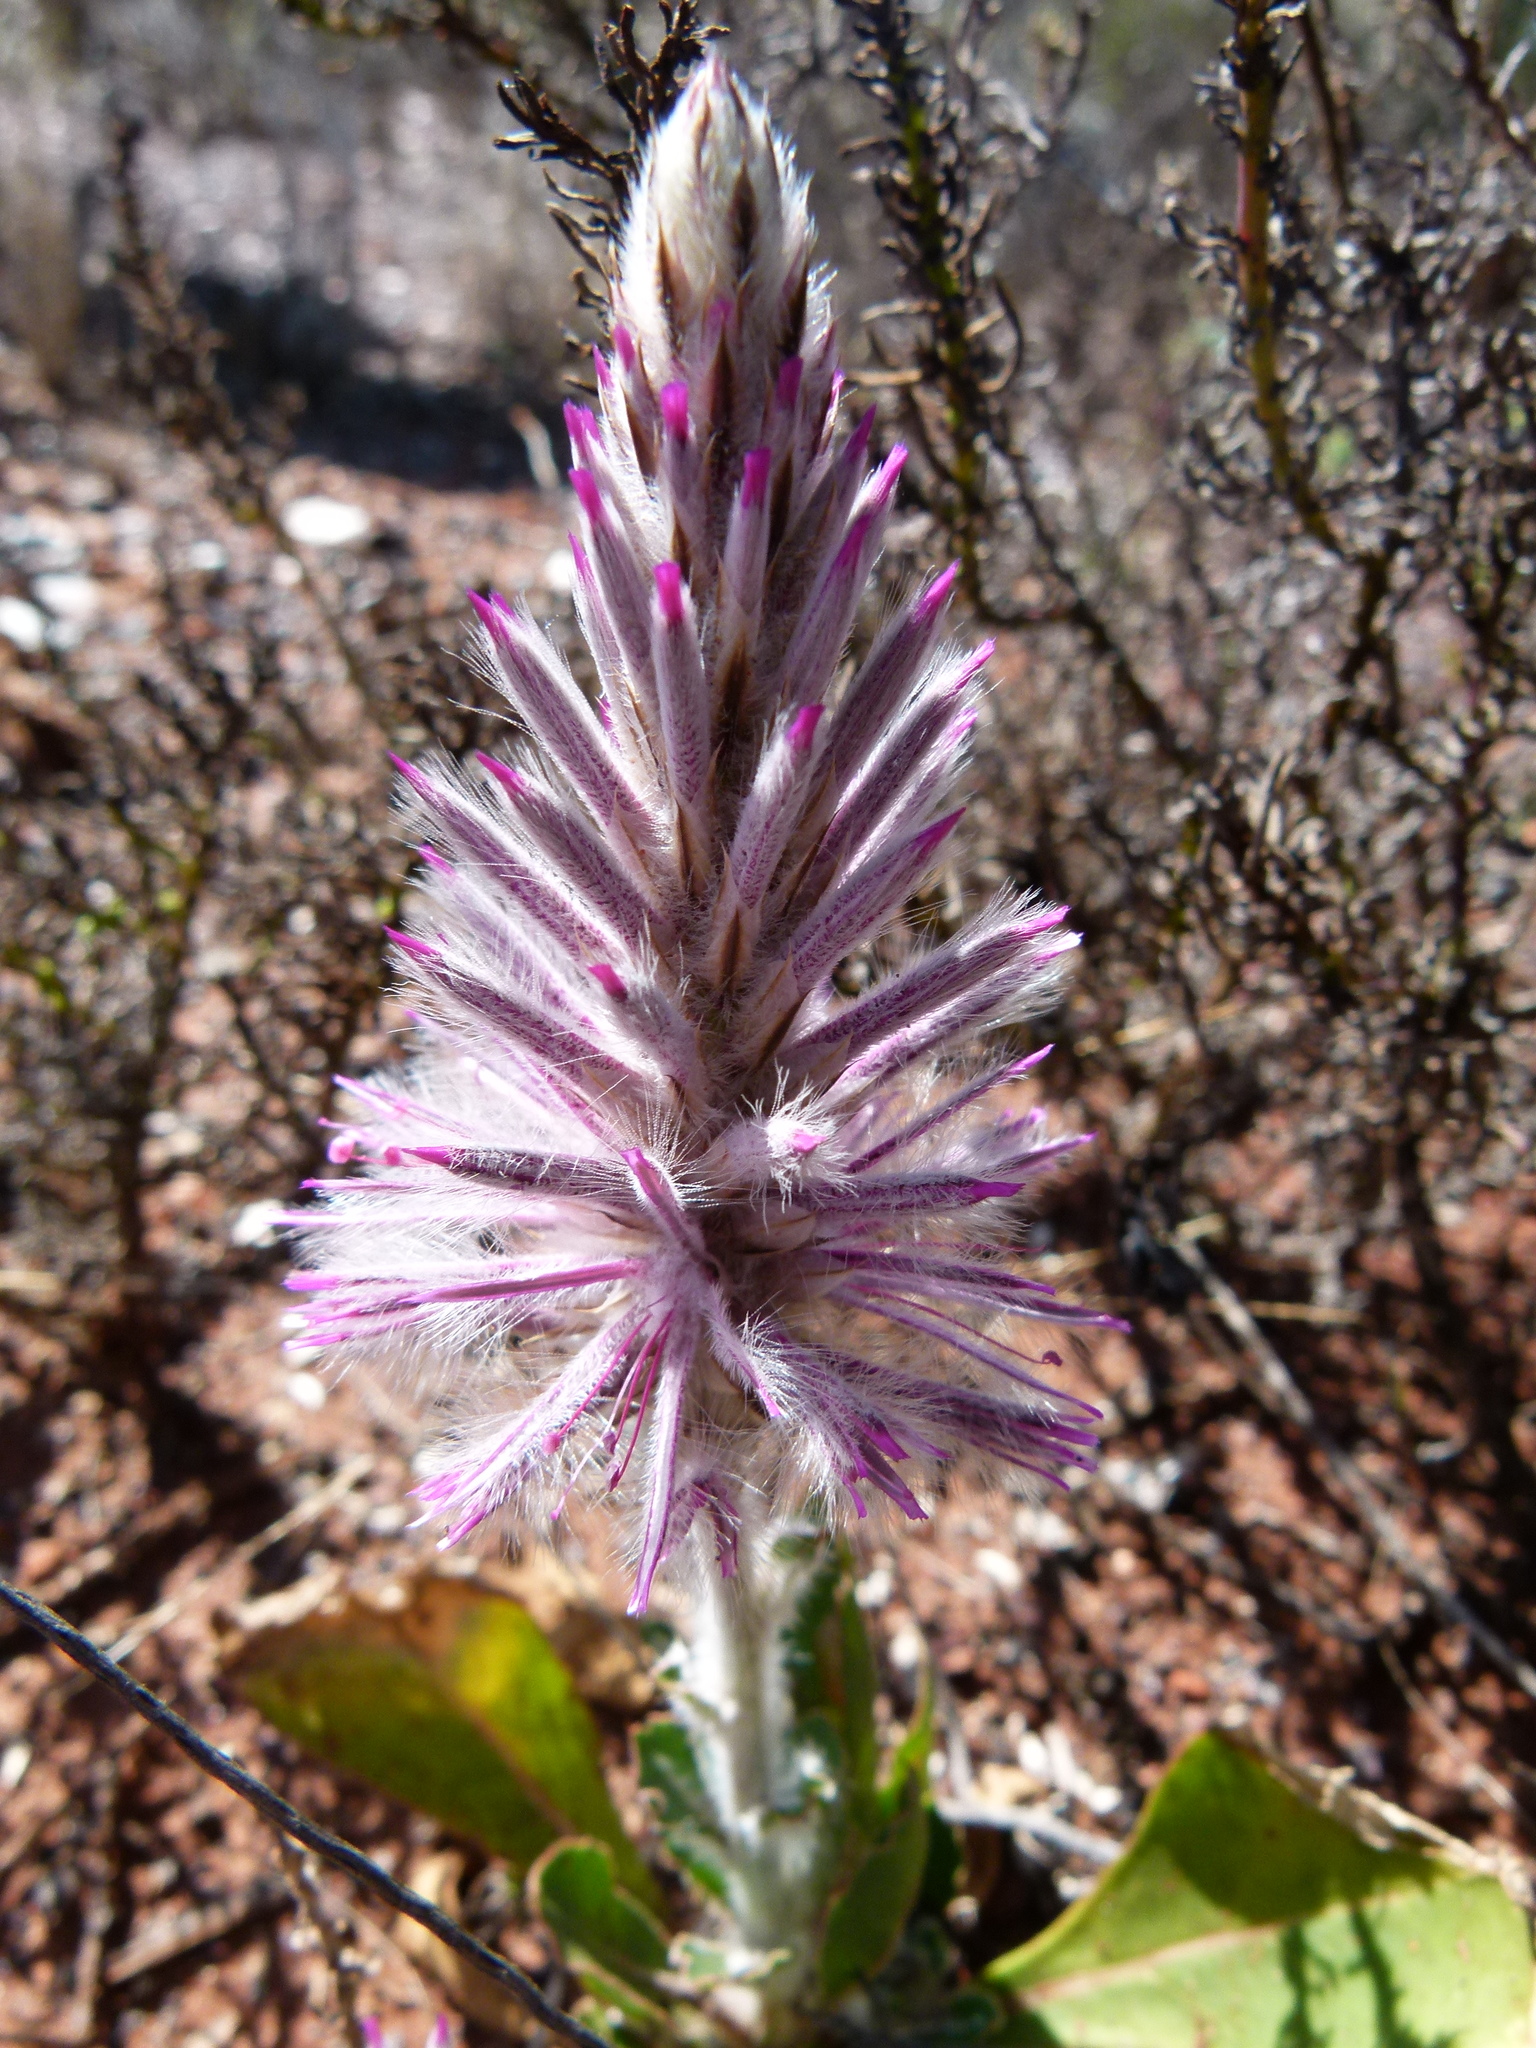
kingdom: Plantae
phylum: Tracheophyta
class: Magnoliopsida
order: Caryophyllales
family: Amaranthaceae
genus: Ptilotus
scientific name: Ptilotus exaltatus
